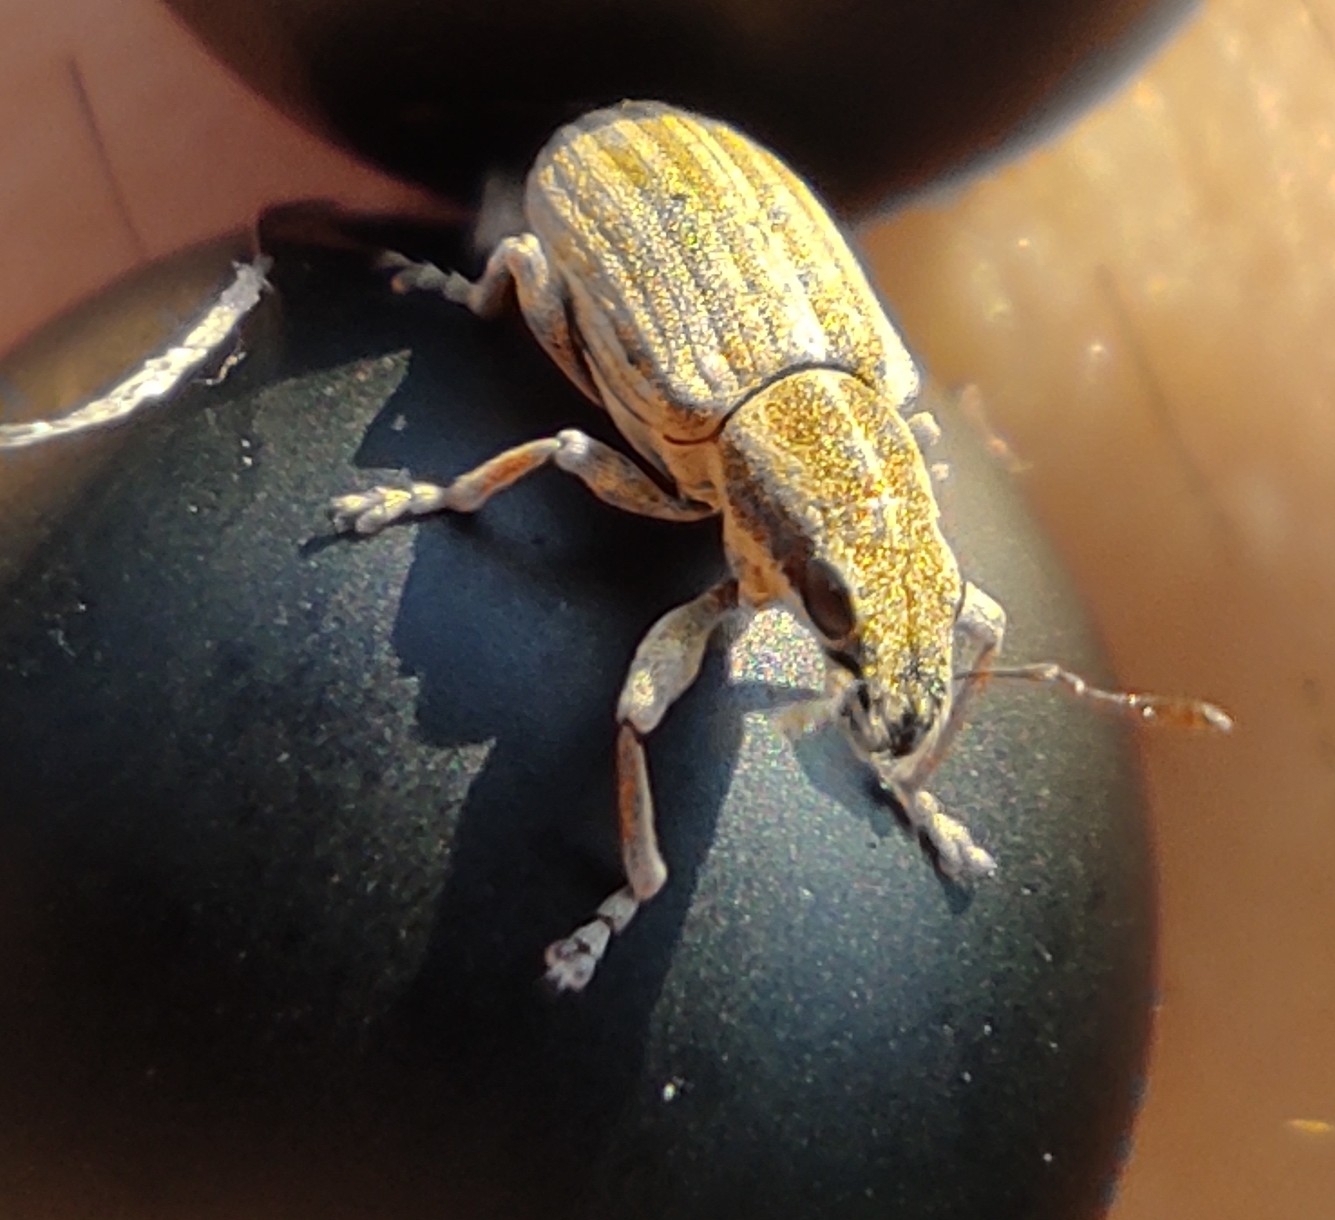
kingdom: Animalia
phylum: Arthropoda
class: Insecta
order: Coleoptera
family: Curculionidae
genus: Sitona
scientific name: Sitona lineatus
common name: Weevil
